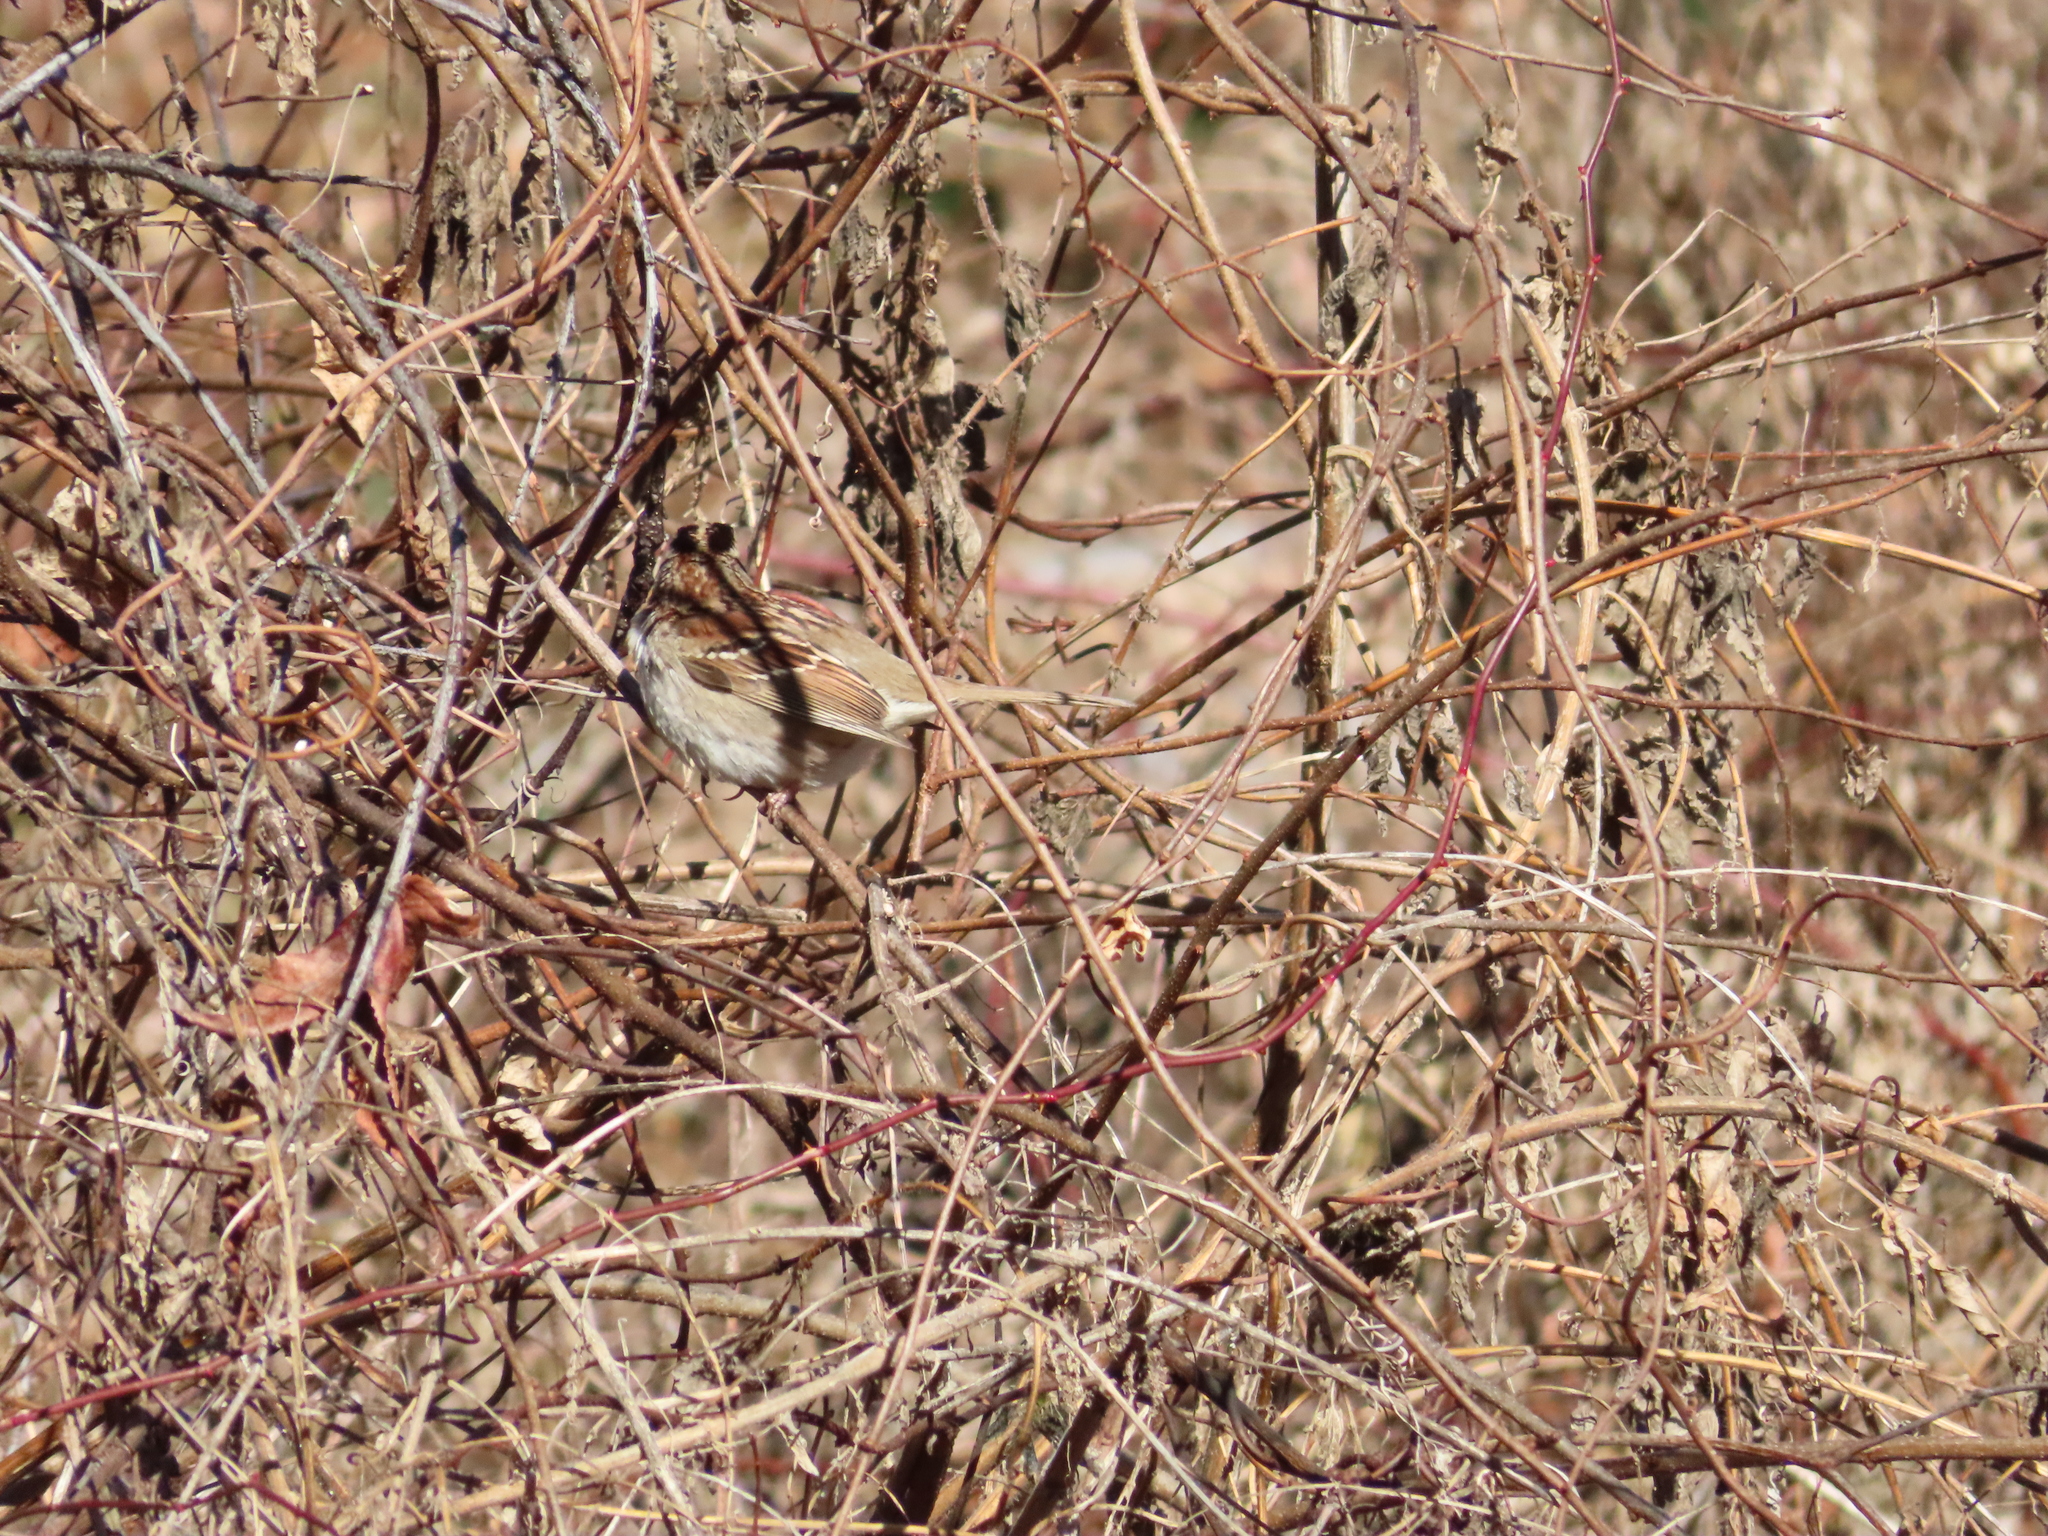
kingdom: Animalia
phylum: Chordata
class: Aves
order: Passeriformes
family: Passerellidae
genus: Zonotrichia
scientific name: Zonotrichia albicollis
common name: White-throated sparrow
